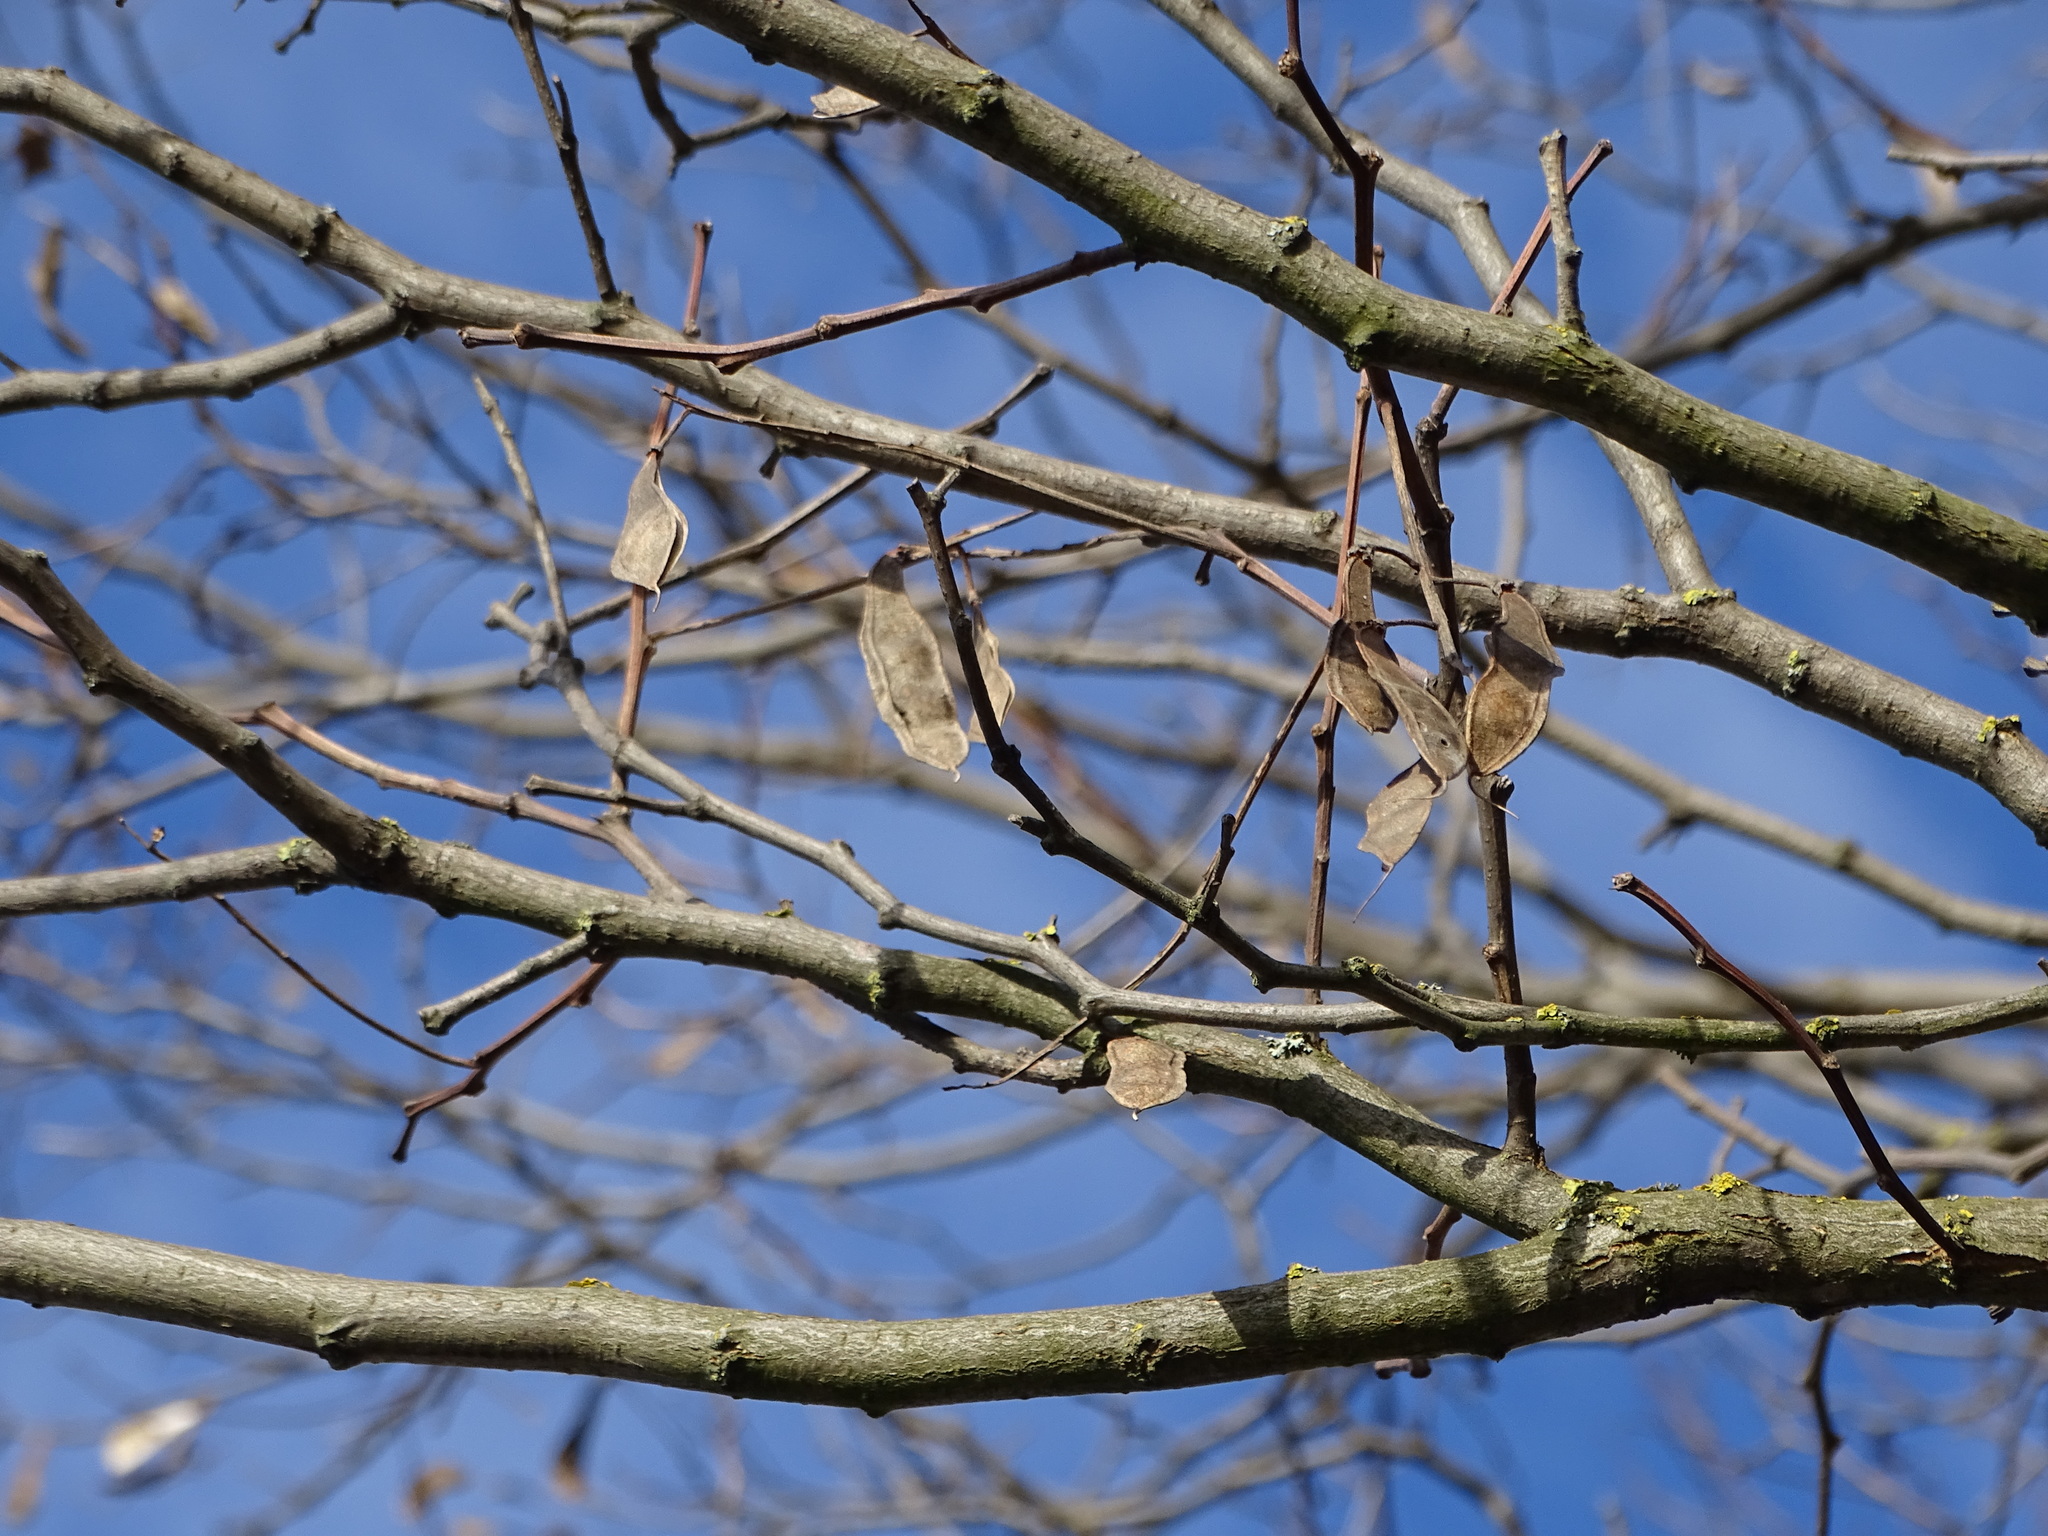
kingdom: Plantae
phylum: Tracheophyta
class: Magnoliopsida
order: Fabales
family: Fabaceae
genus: Robinia
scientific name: Robinia pseudoacacia
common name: Black locust
